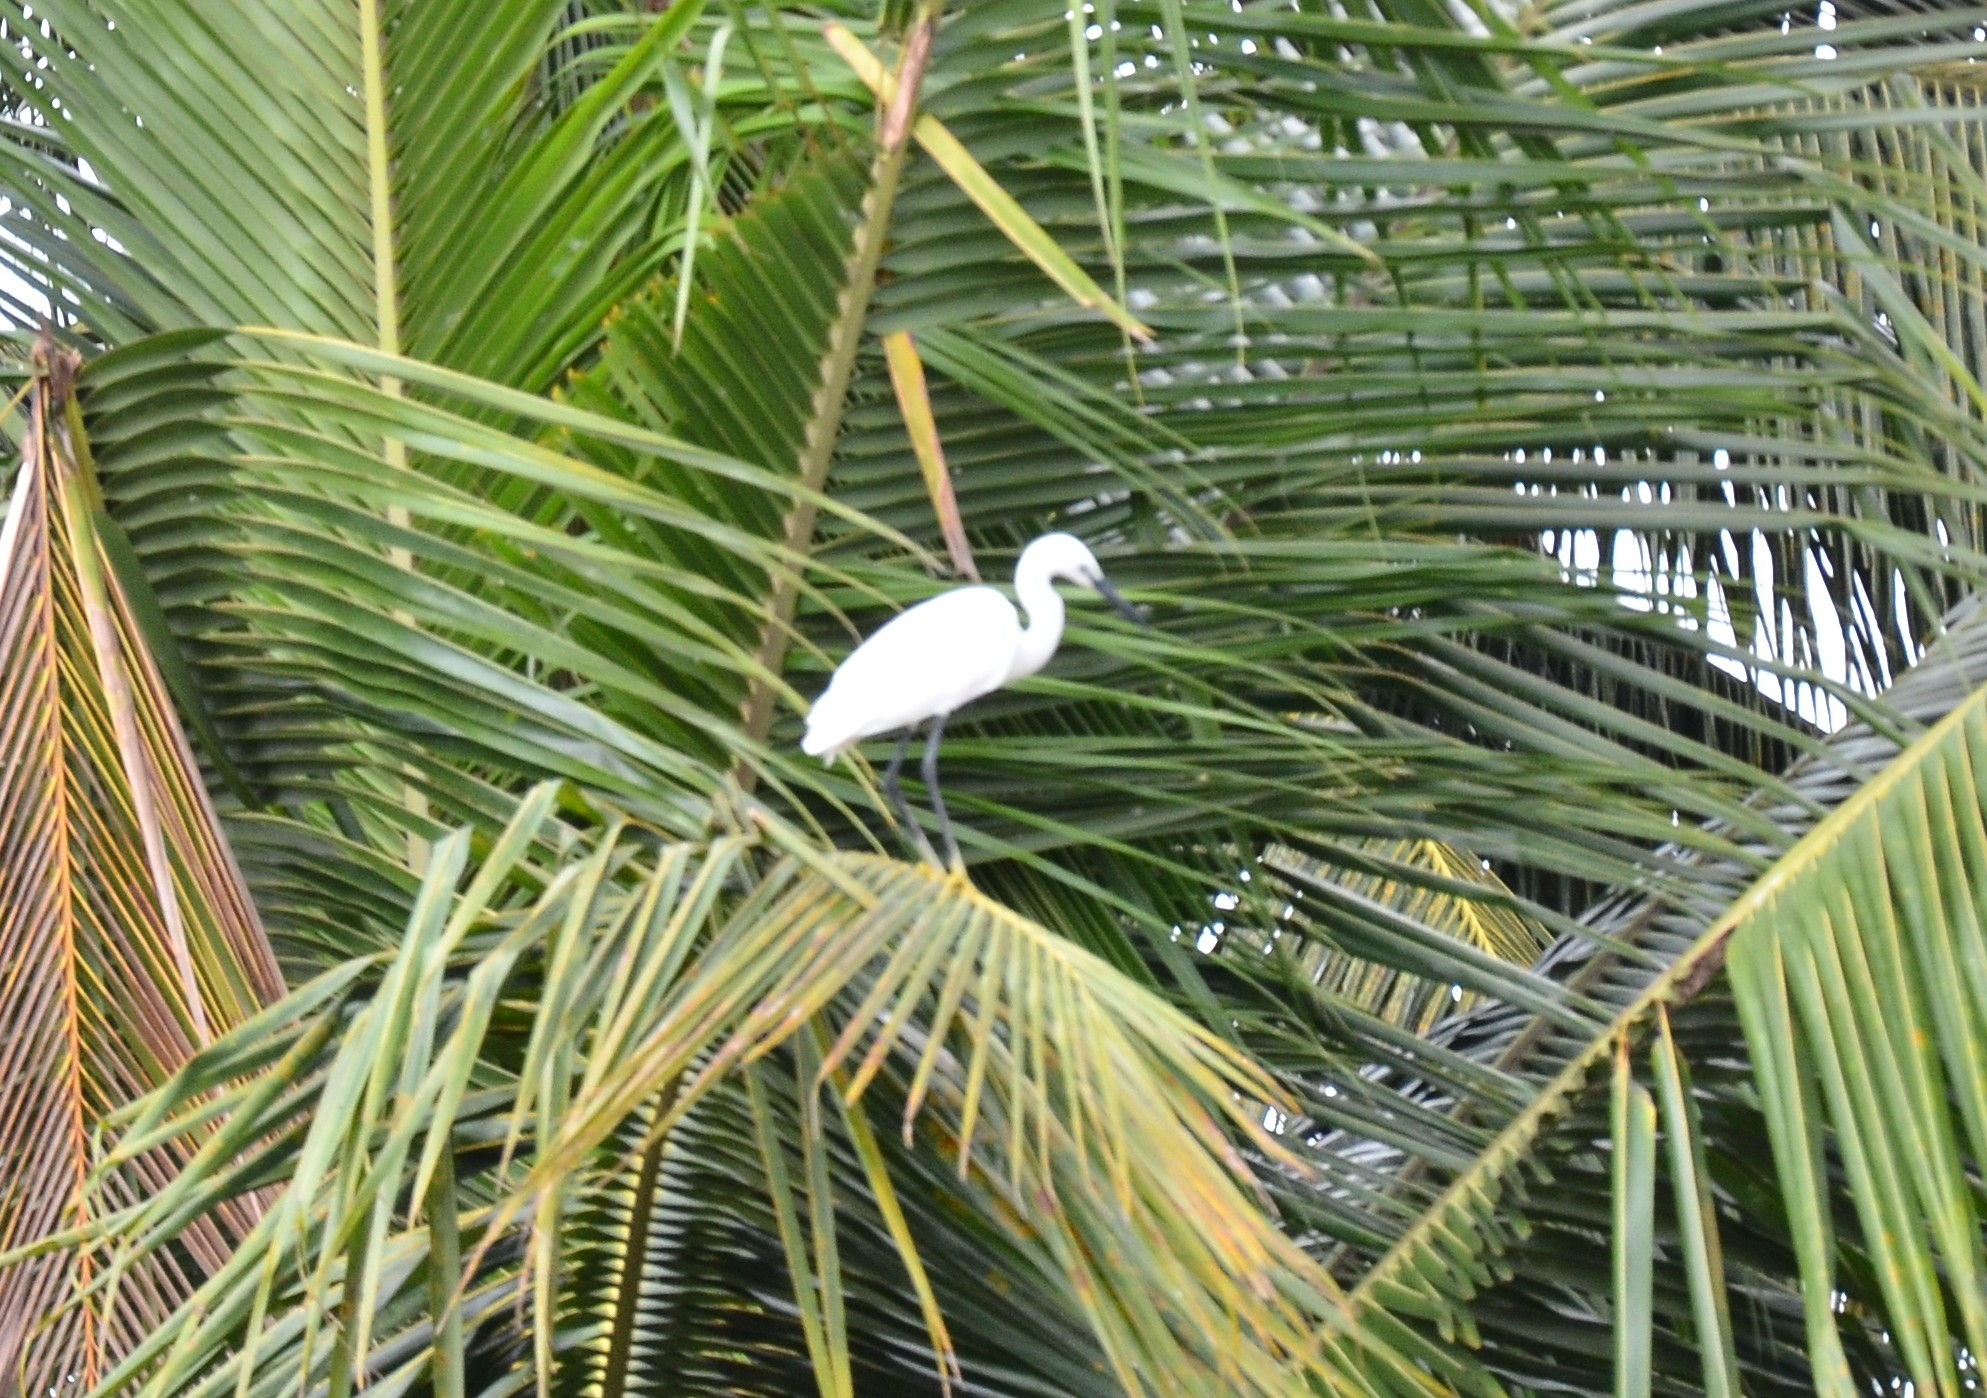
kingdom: Animalia
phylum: Chordata
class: Aves
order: Pelecaniformes
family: Ardeidae
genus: Egretta
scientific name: Egretta garzetta
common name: Little egret
